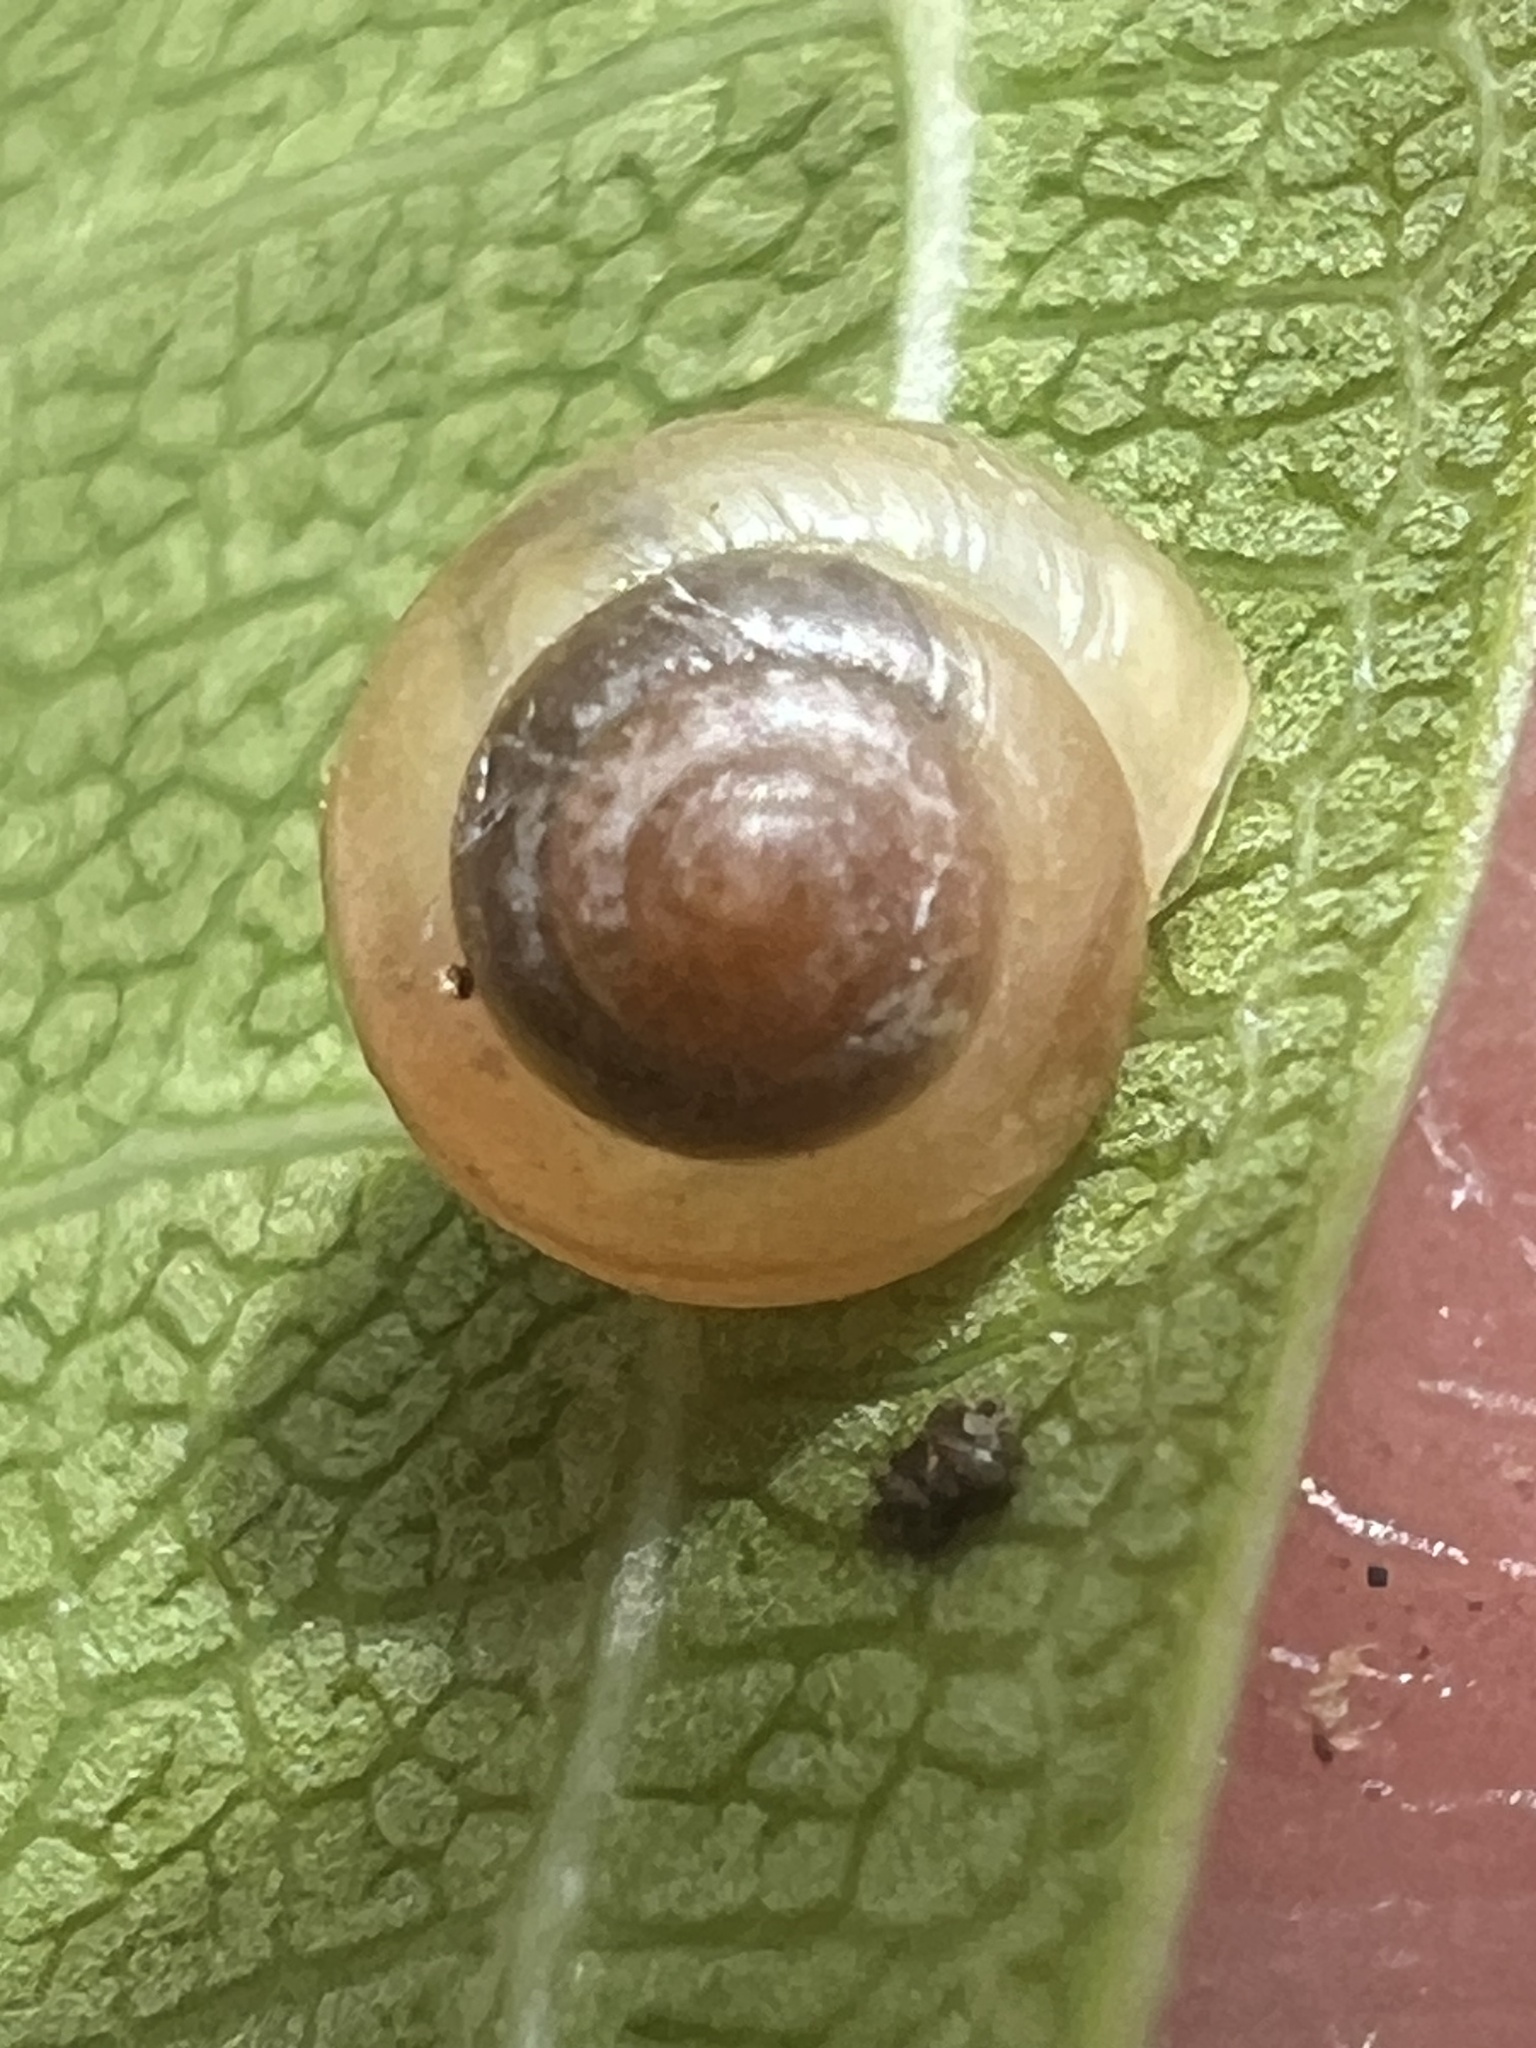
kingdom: Animalia
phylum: Mollusca
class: Gastropoda
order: Stylommatophora
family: Euconulidae
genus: Coneuplecta
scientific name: Coneuplecta calculosa
